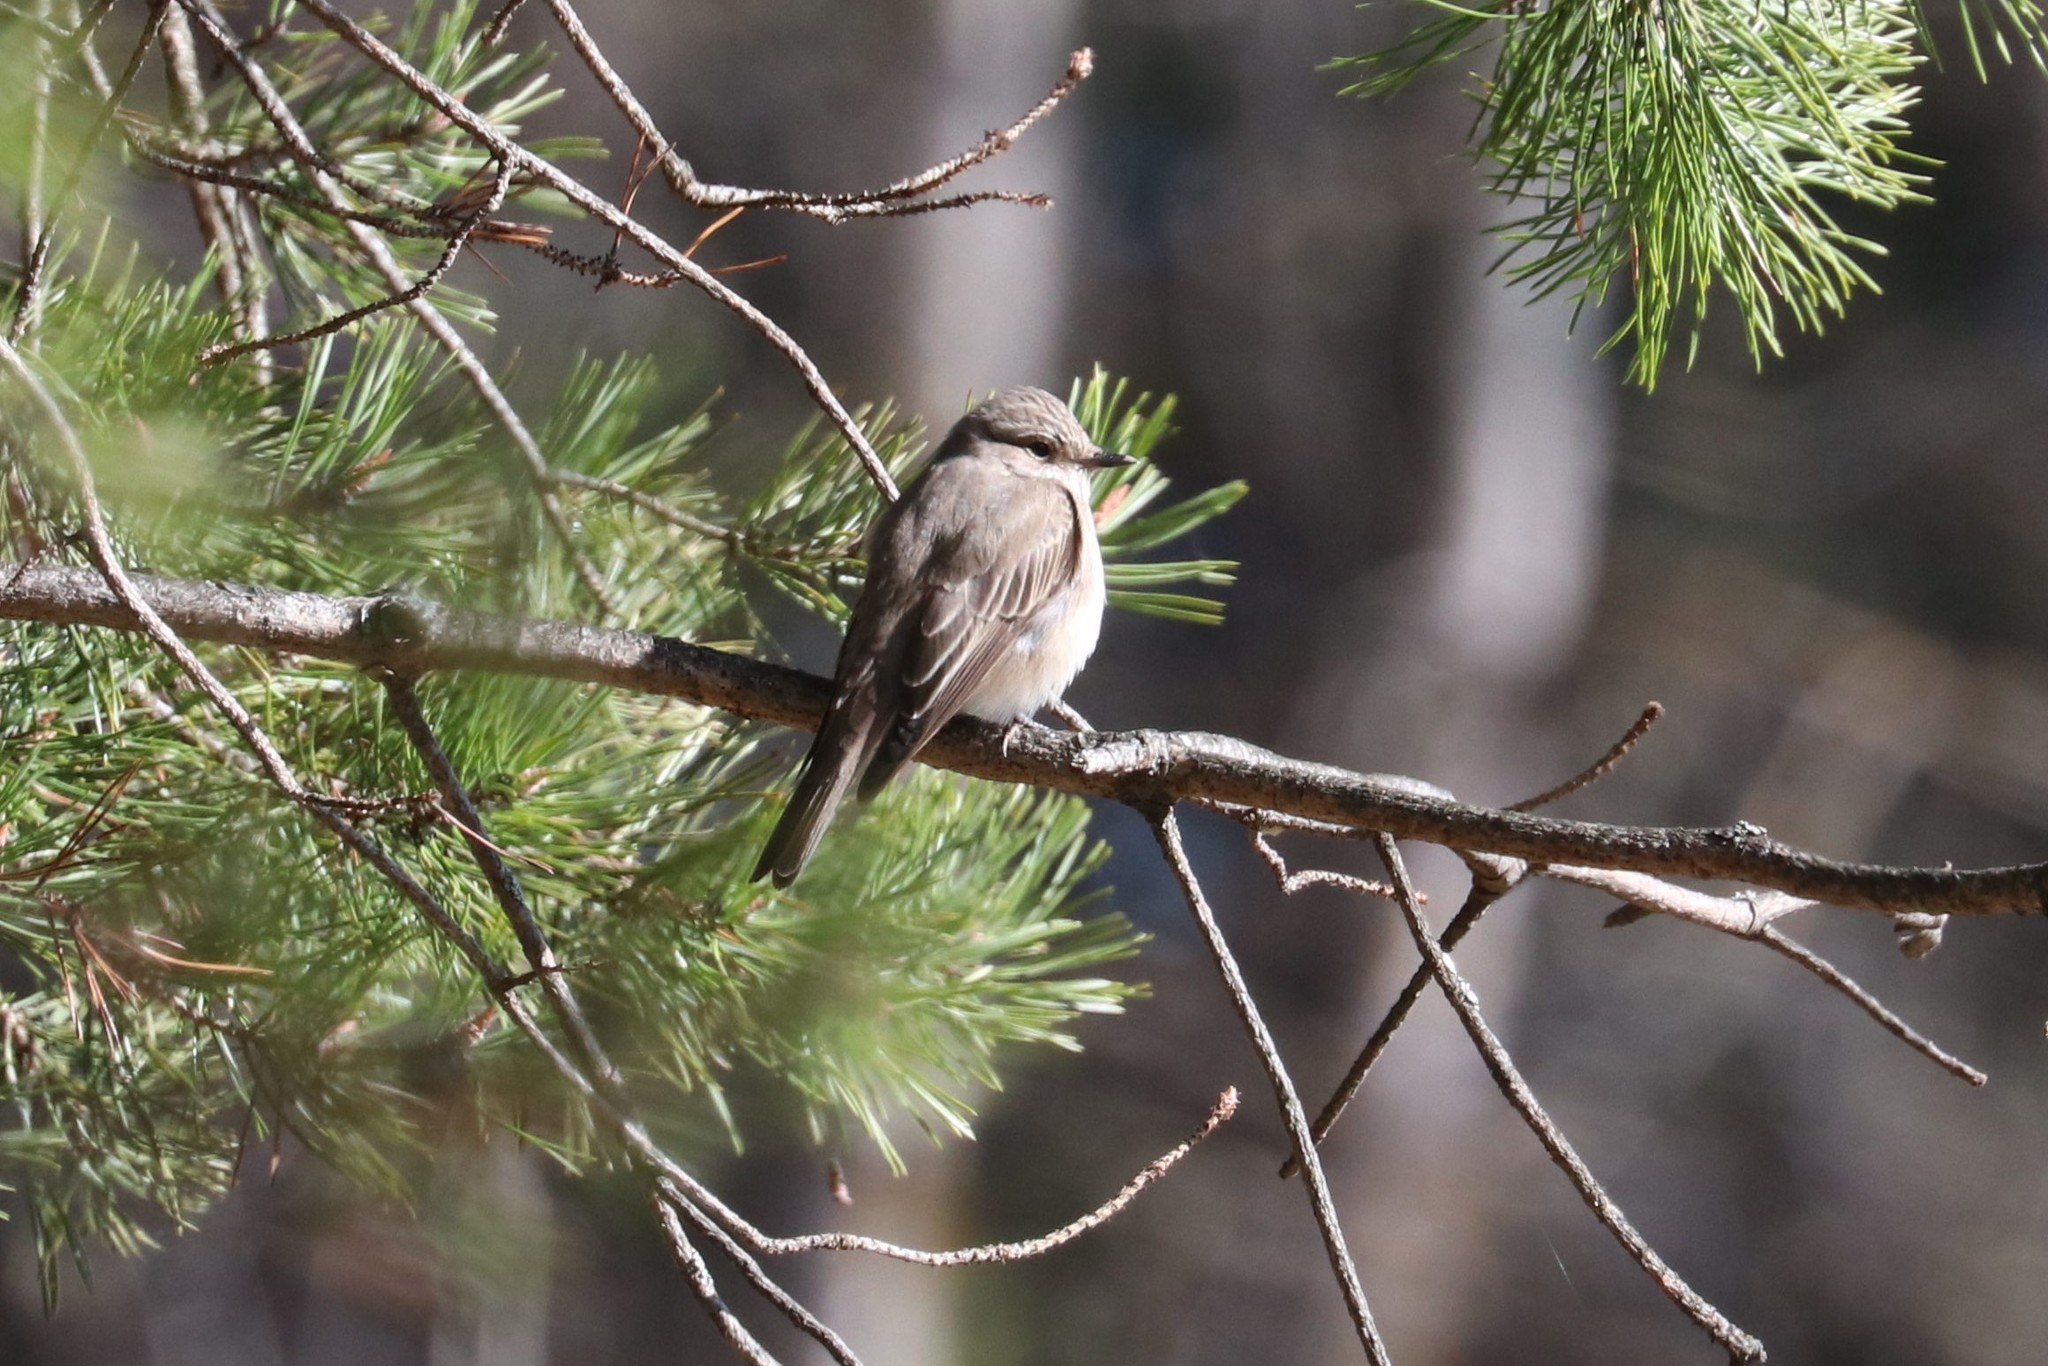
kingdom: Animalia
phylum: Chordata
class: Aves
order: Passeriformes
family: Muscicapidae
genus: Muscicapa
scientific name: Muscicapa striata
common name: Spotted flycatcher
